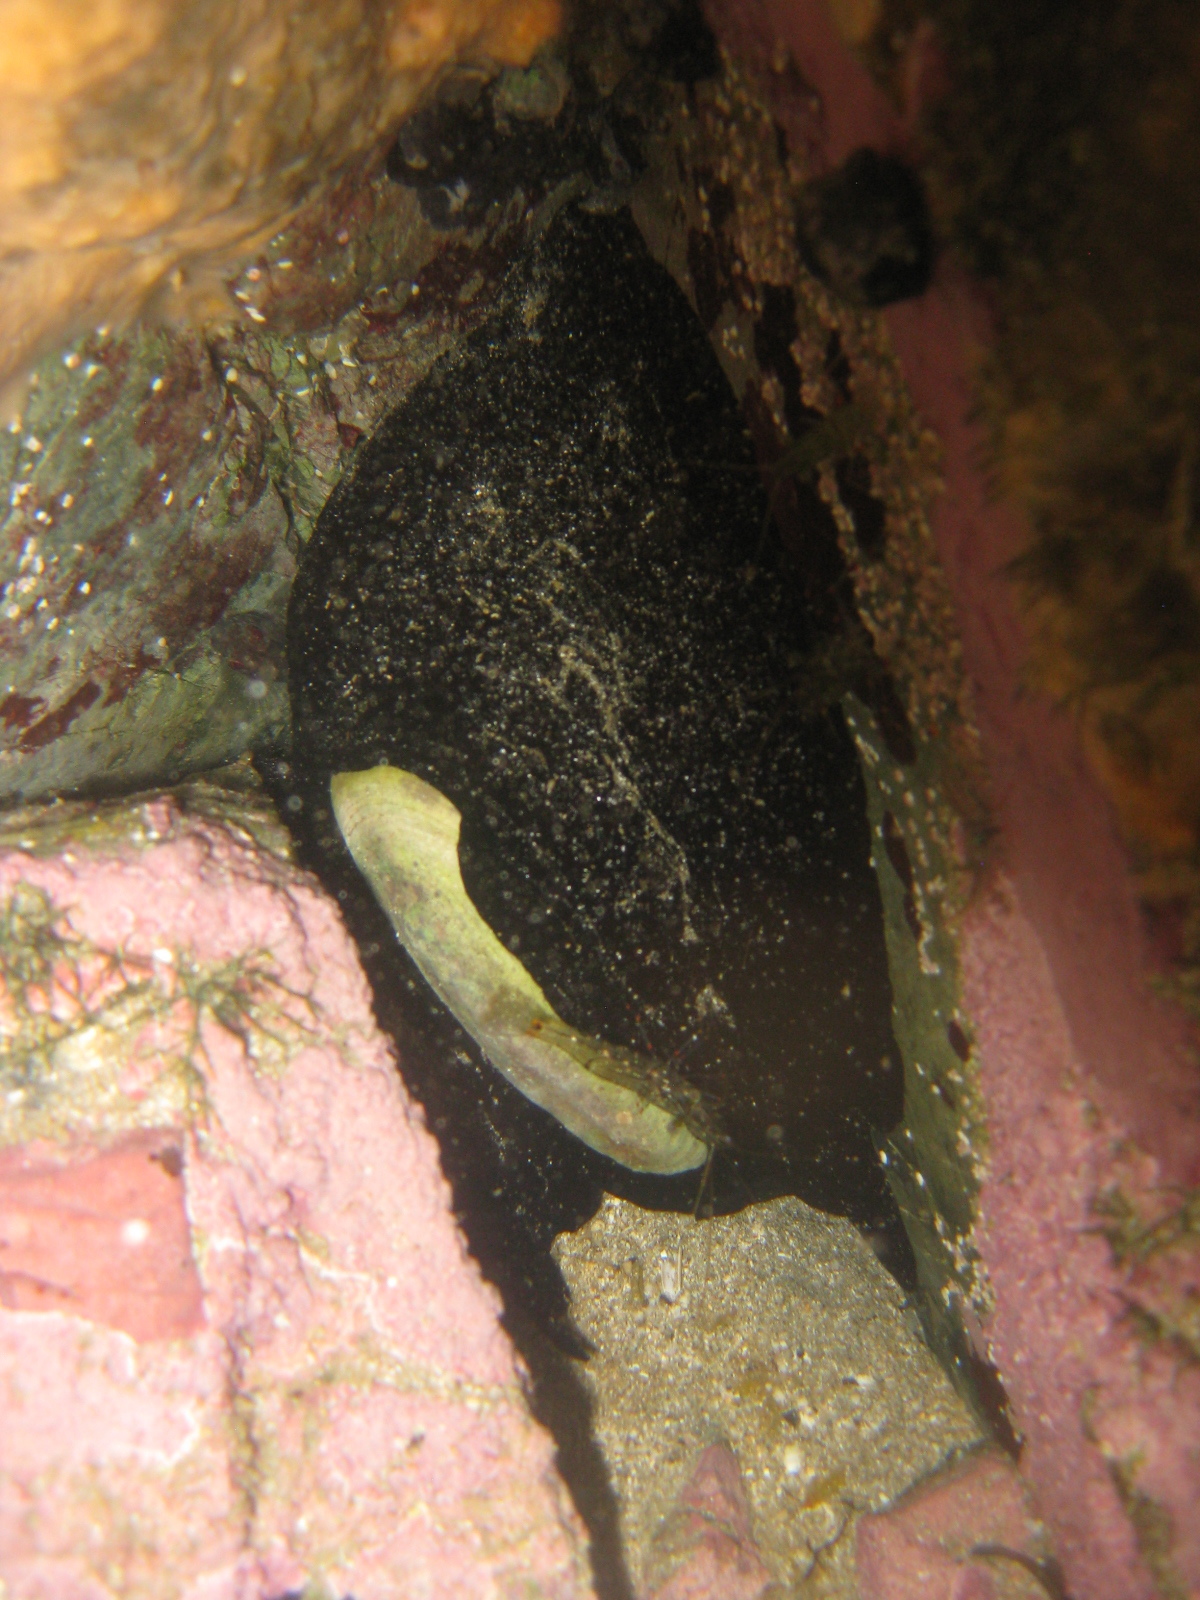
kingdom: Animalia
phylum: Mollusca
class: Gastropoda
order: Lepetellida
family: Fissurellidae
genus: Scutus
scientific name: Scutus breviculus
